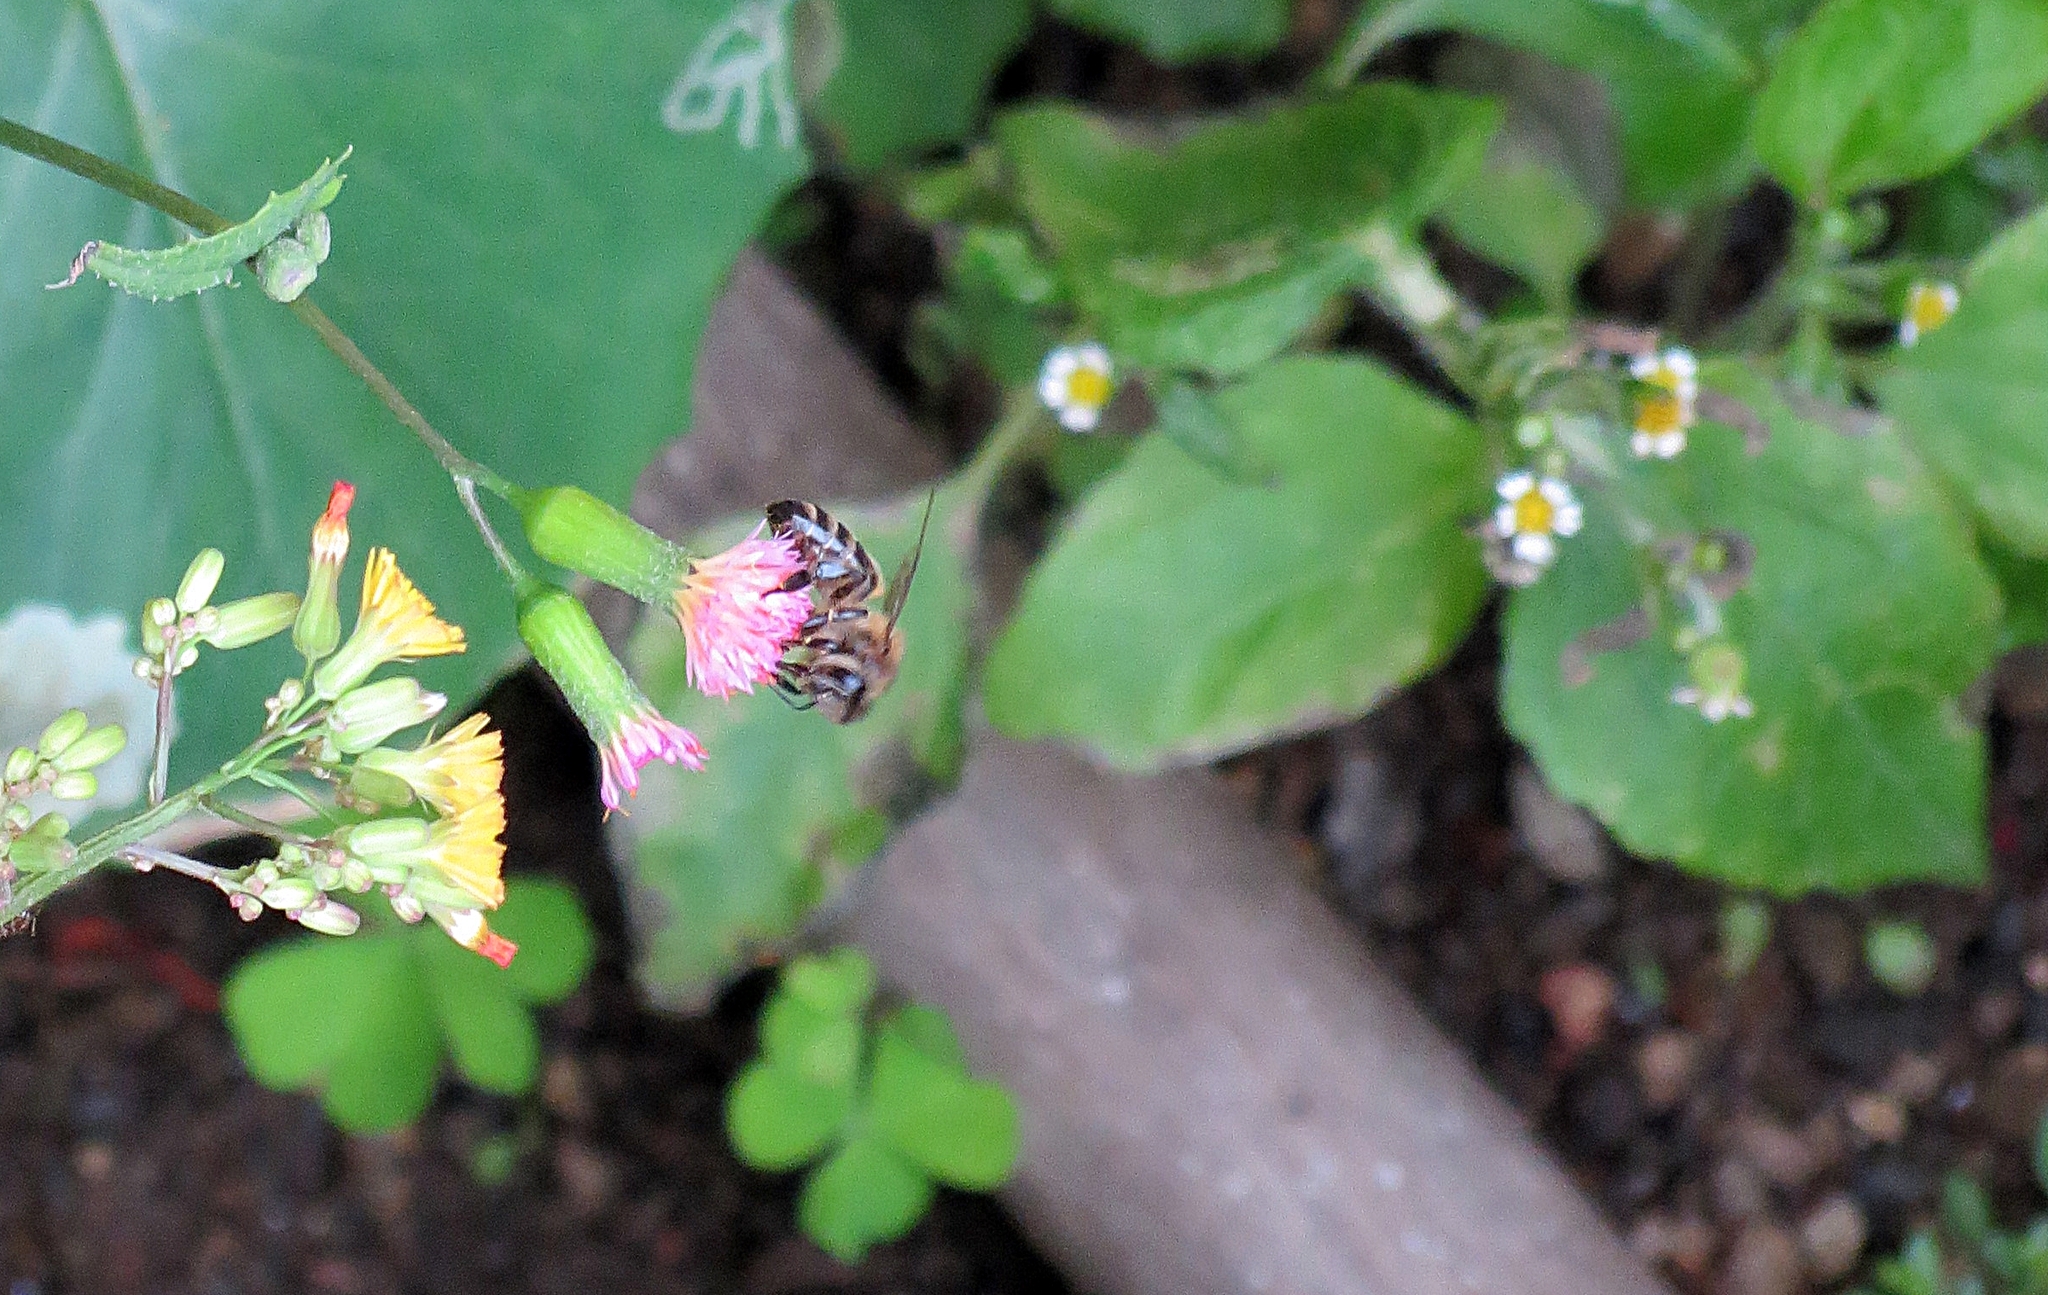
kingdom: Animalia
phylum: Arthropoda
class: Insecta
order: Hymenoptera
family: Apidae
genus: Apis
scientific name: Apis mellifera
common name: Honey bee
